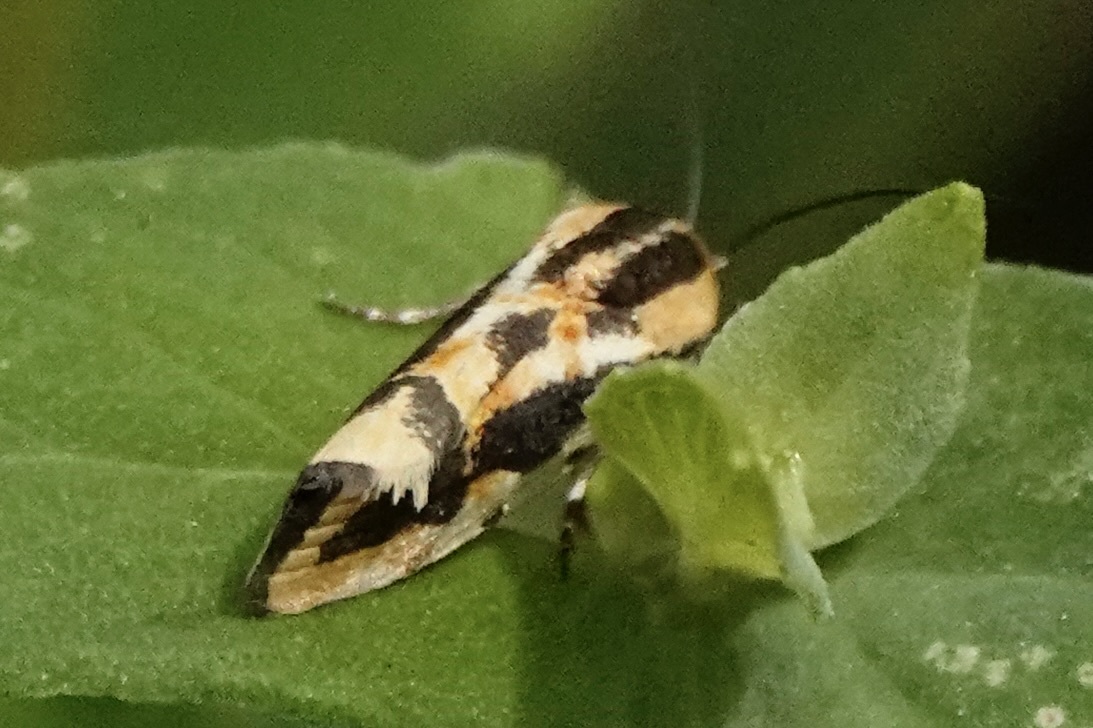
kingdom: Animalia
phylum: Arthropoda
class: Insecta
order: Lepidoptera
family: Noctuidae
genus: Acontia
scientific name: Acontia leo
